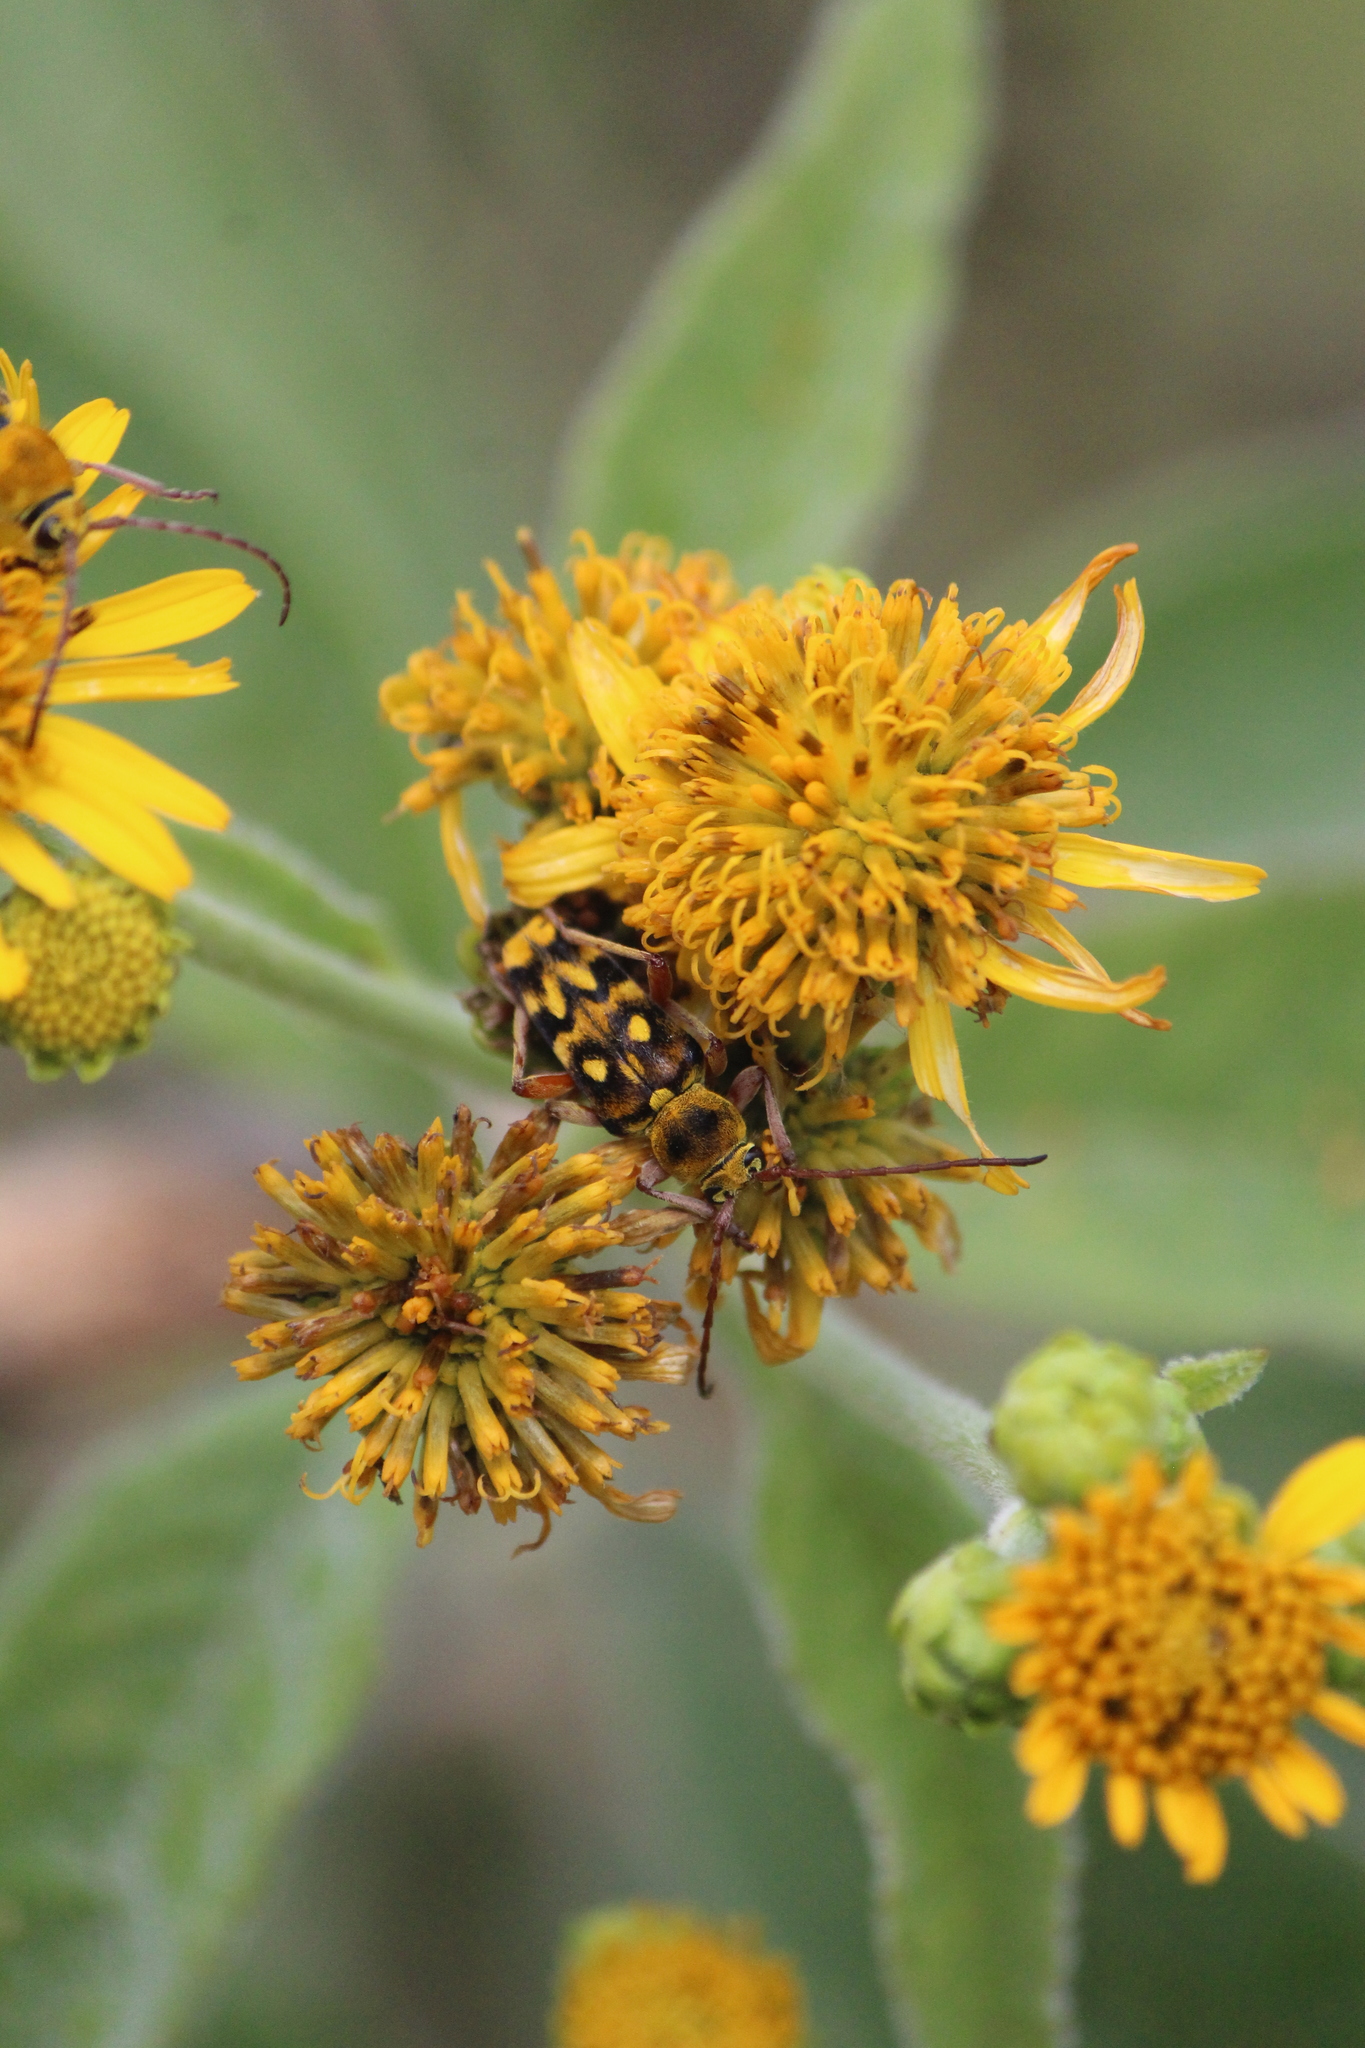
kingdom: Animalia
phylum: Arthropoda
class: Insecta
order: Coleoptera
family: Cerambycidae
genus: Ochraethes
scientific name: Ochraethes sommeri
